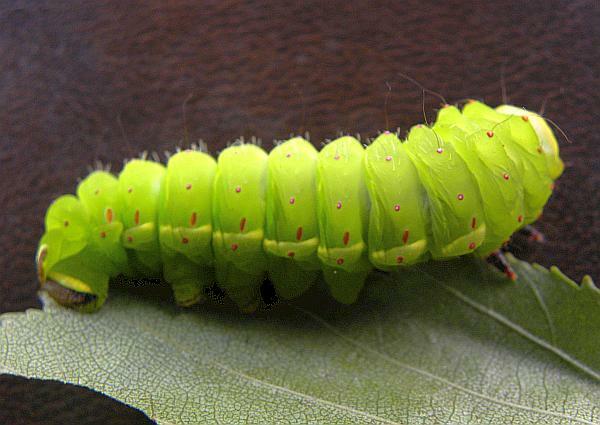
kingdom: Animalia
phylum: Arthropoda
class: Insecta
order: Lepidoptera
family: Saturniidae
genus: Actias
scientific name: Actias luna
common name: Luna moth
